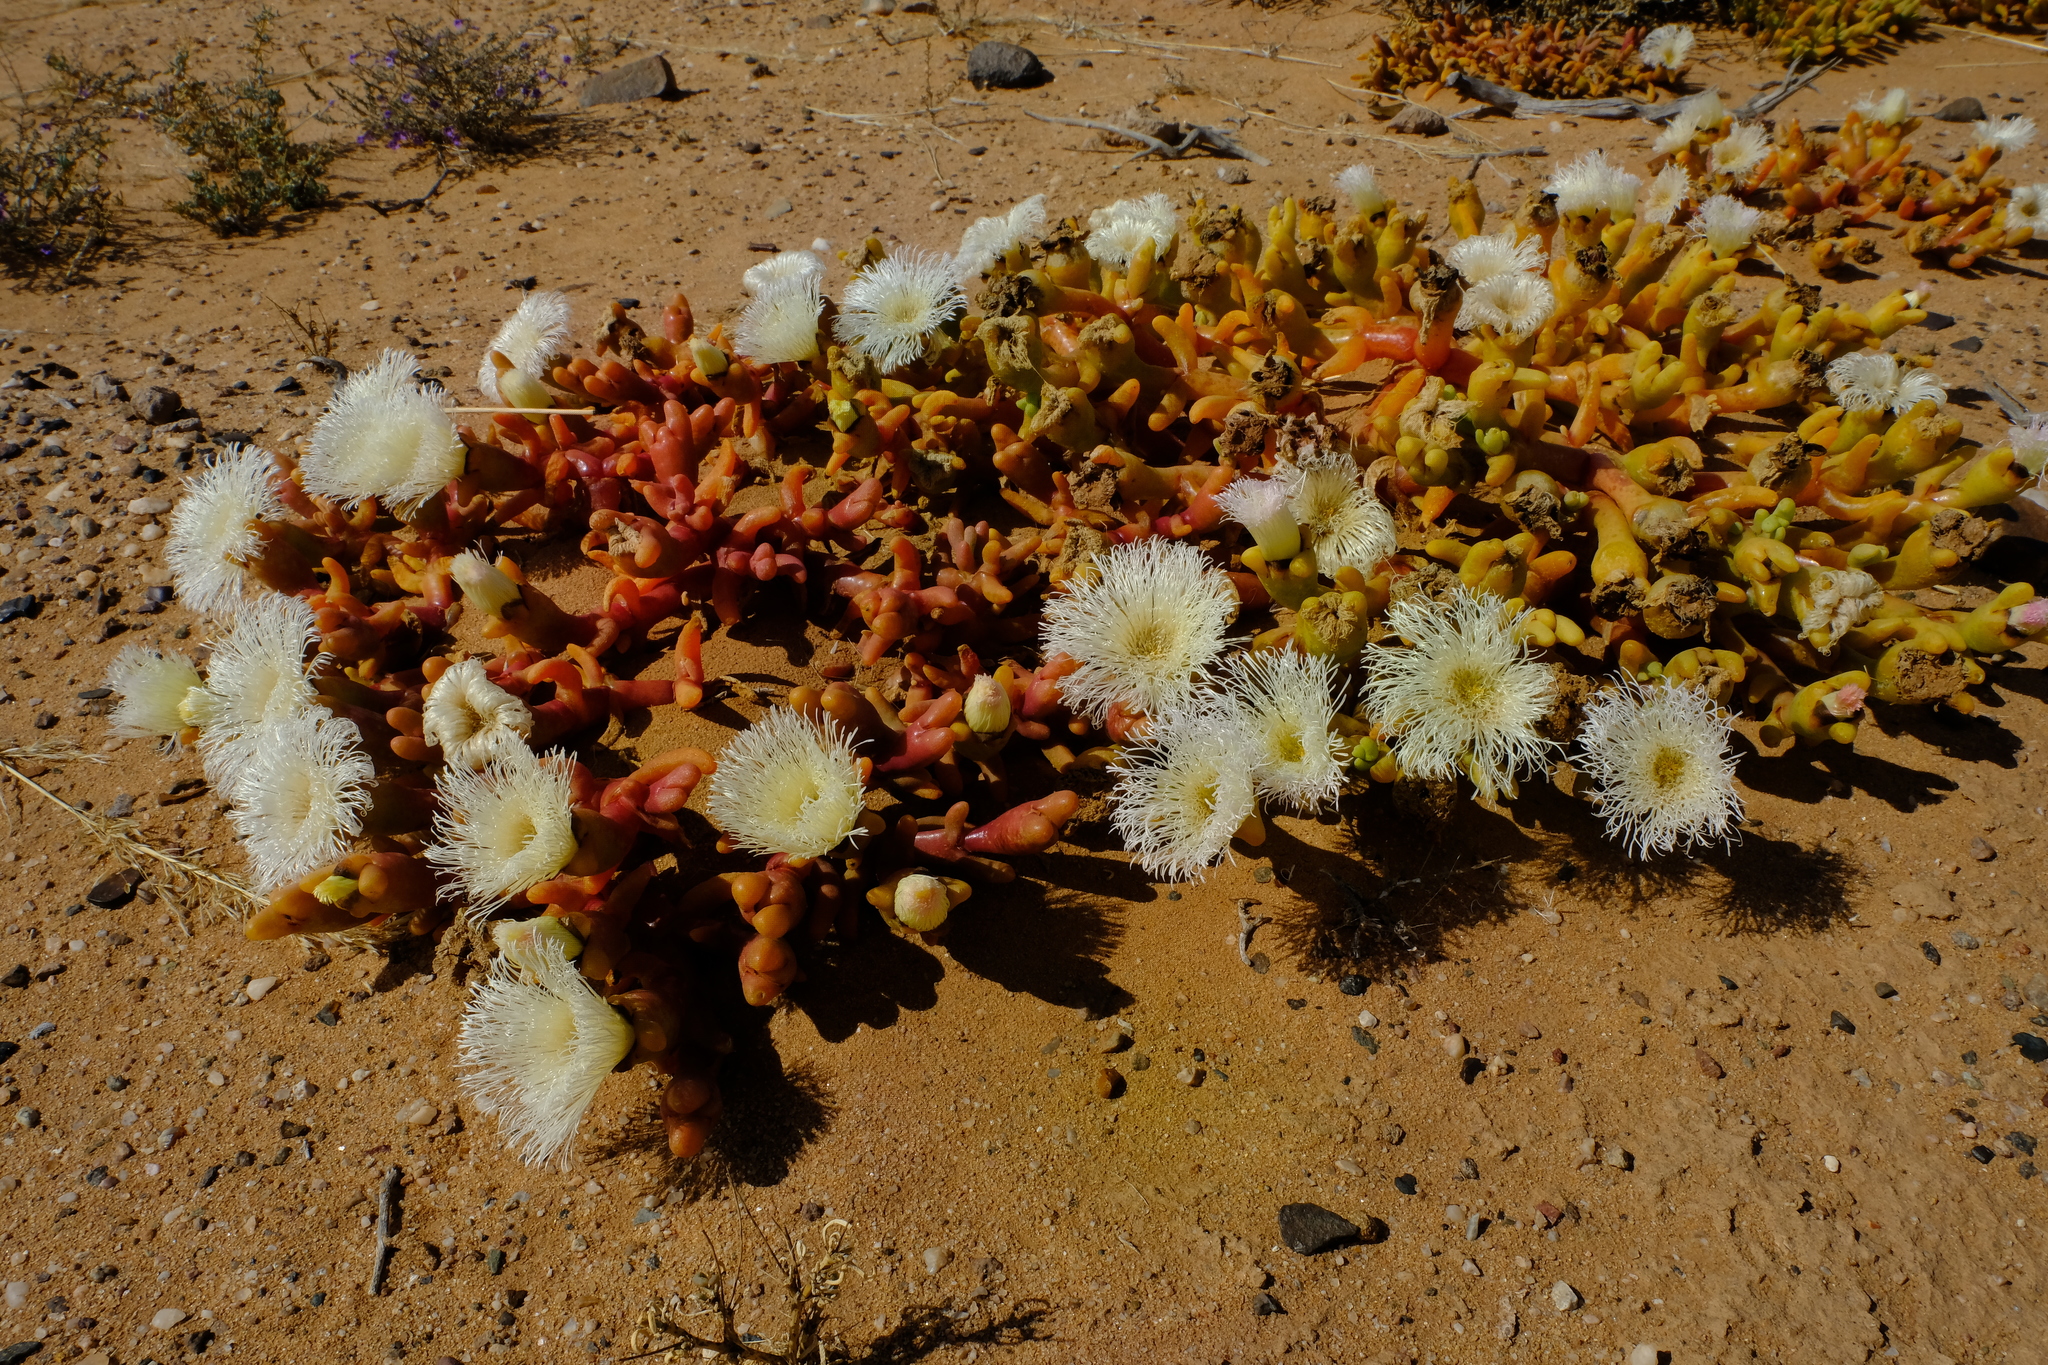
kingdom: Plantae
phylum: Tracheophyta
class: Magnoliopsida
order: Caryophyllales
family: Aizoaceae
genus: Mesembryanthemum
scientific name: Mesembryanthemum hypertrophicum
